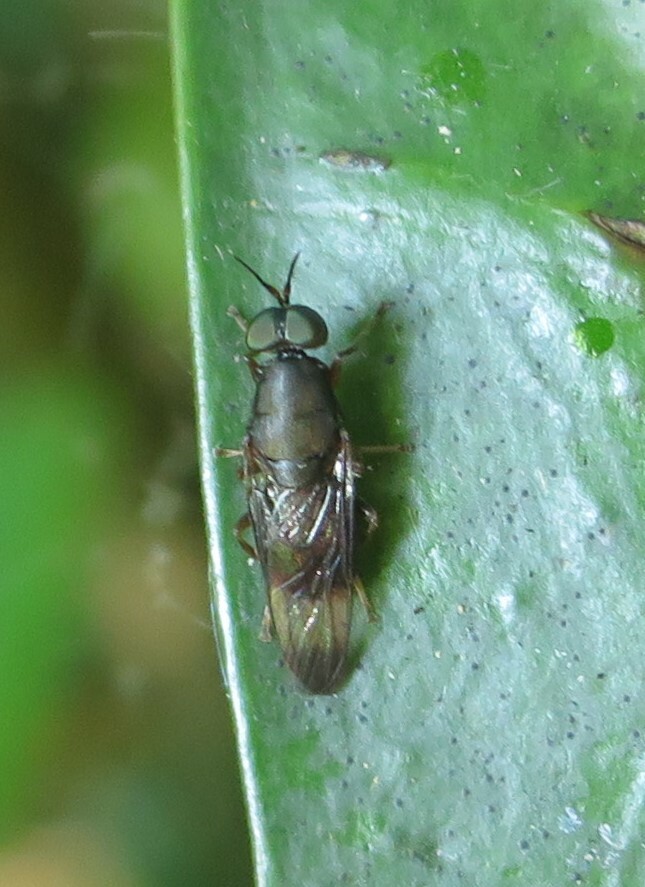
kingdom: Animalia
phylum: Arthropoda
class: Insecta
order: Diptera
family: Stratiomyidae
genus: Dysbiota
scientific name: Dysbiota peregrina
